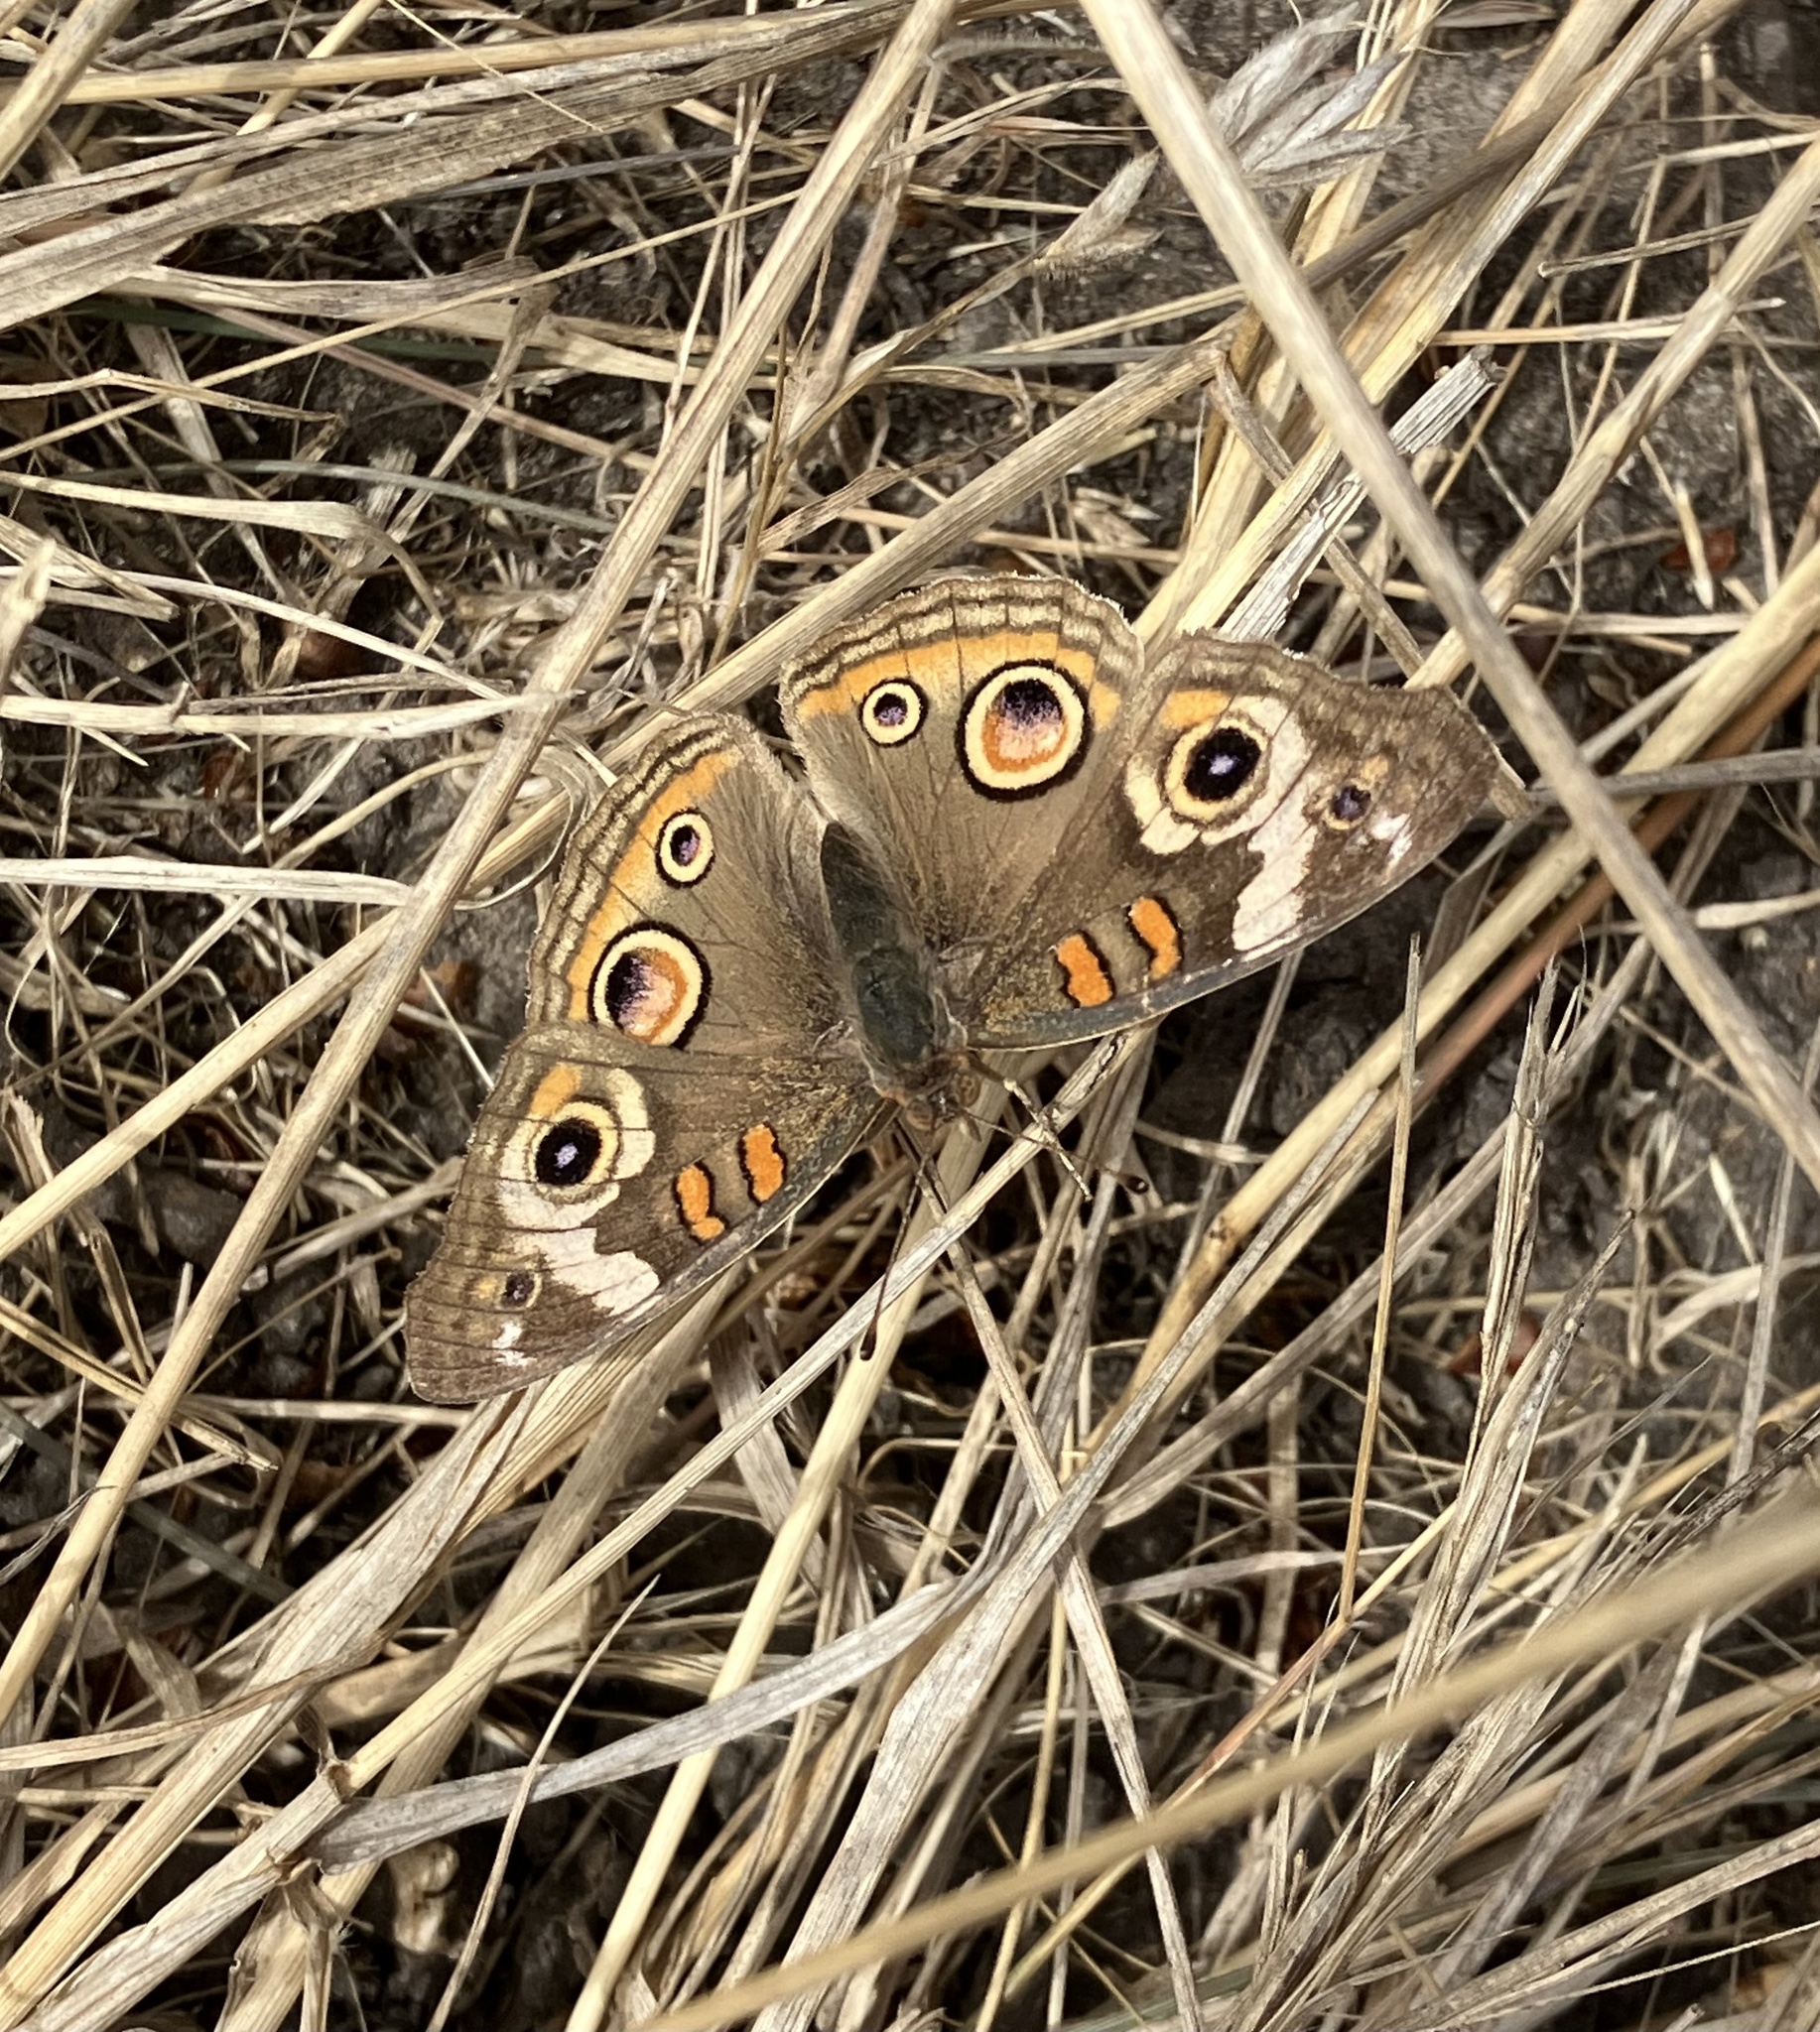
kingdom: Animalia
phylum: Arthropoda
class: Insecta
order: Lepidoptera
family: Nymphalidae
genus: Junonia
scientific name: Junonia grisea
